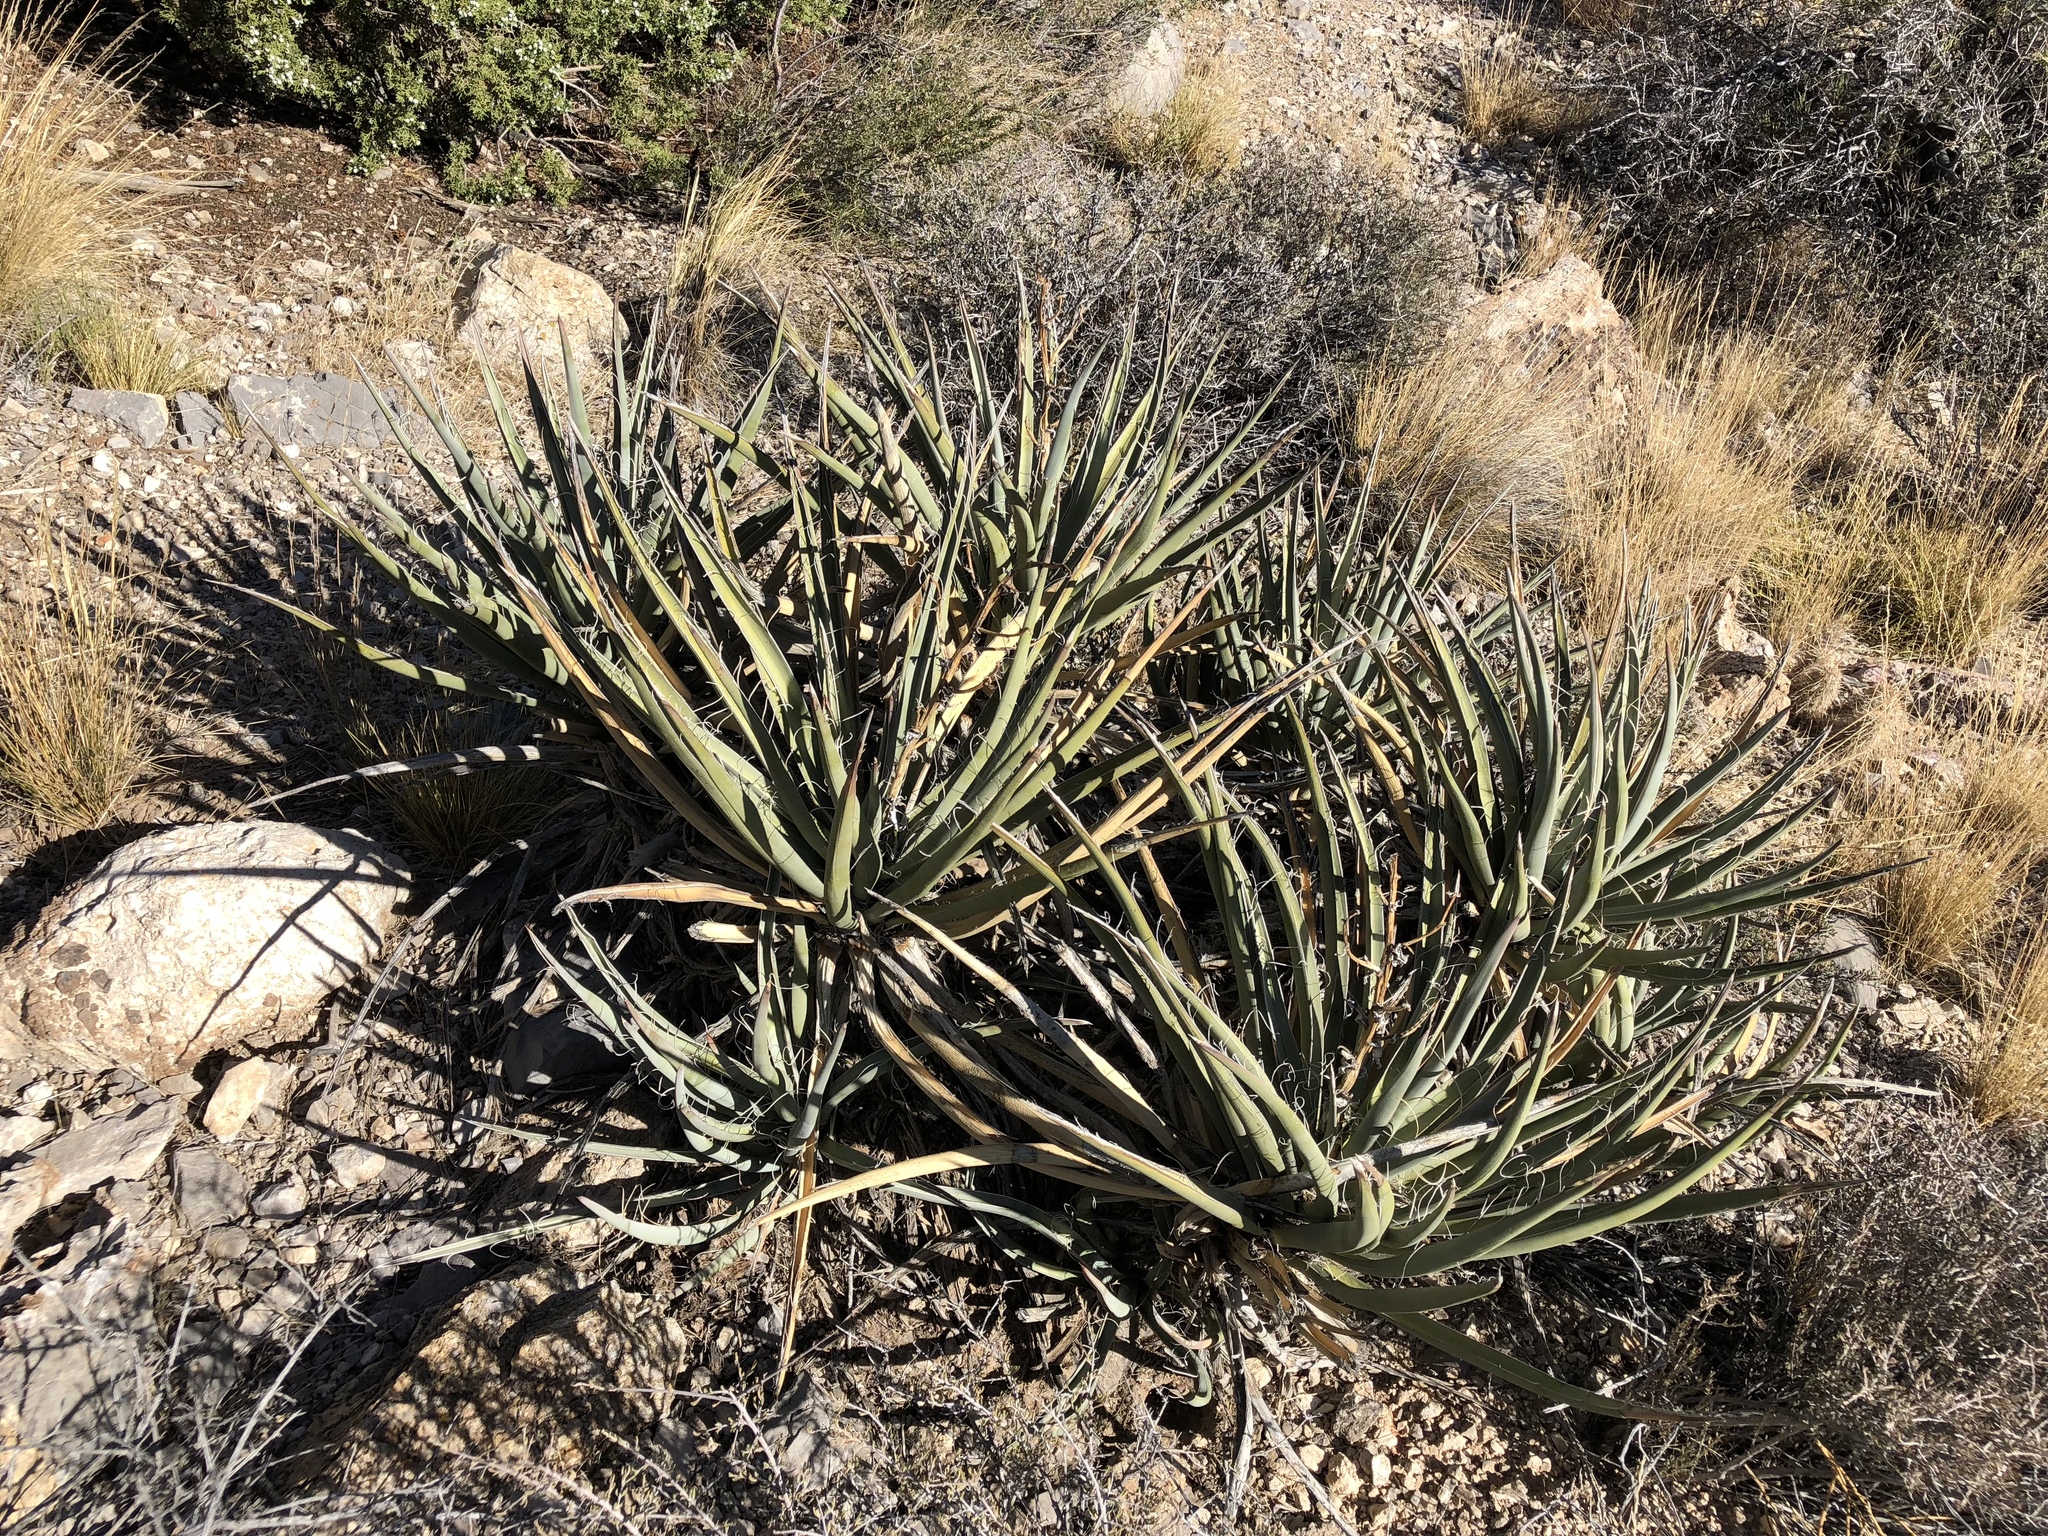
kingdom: Plantae
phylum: Tracheophyta
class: Liliopsida
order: Asparagales
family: Asparagaceae
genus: Yucca
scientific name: Yucca baccata
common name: Banana yucca
